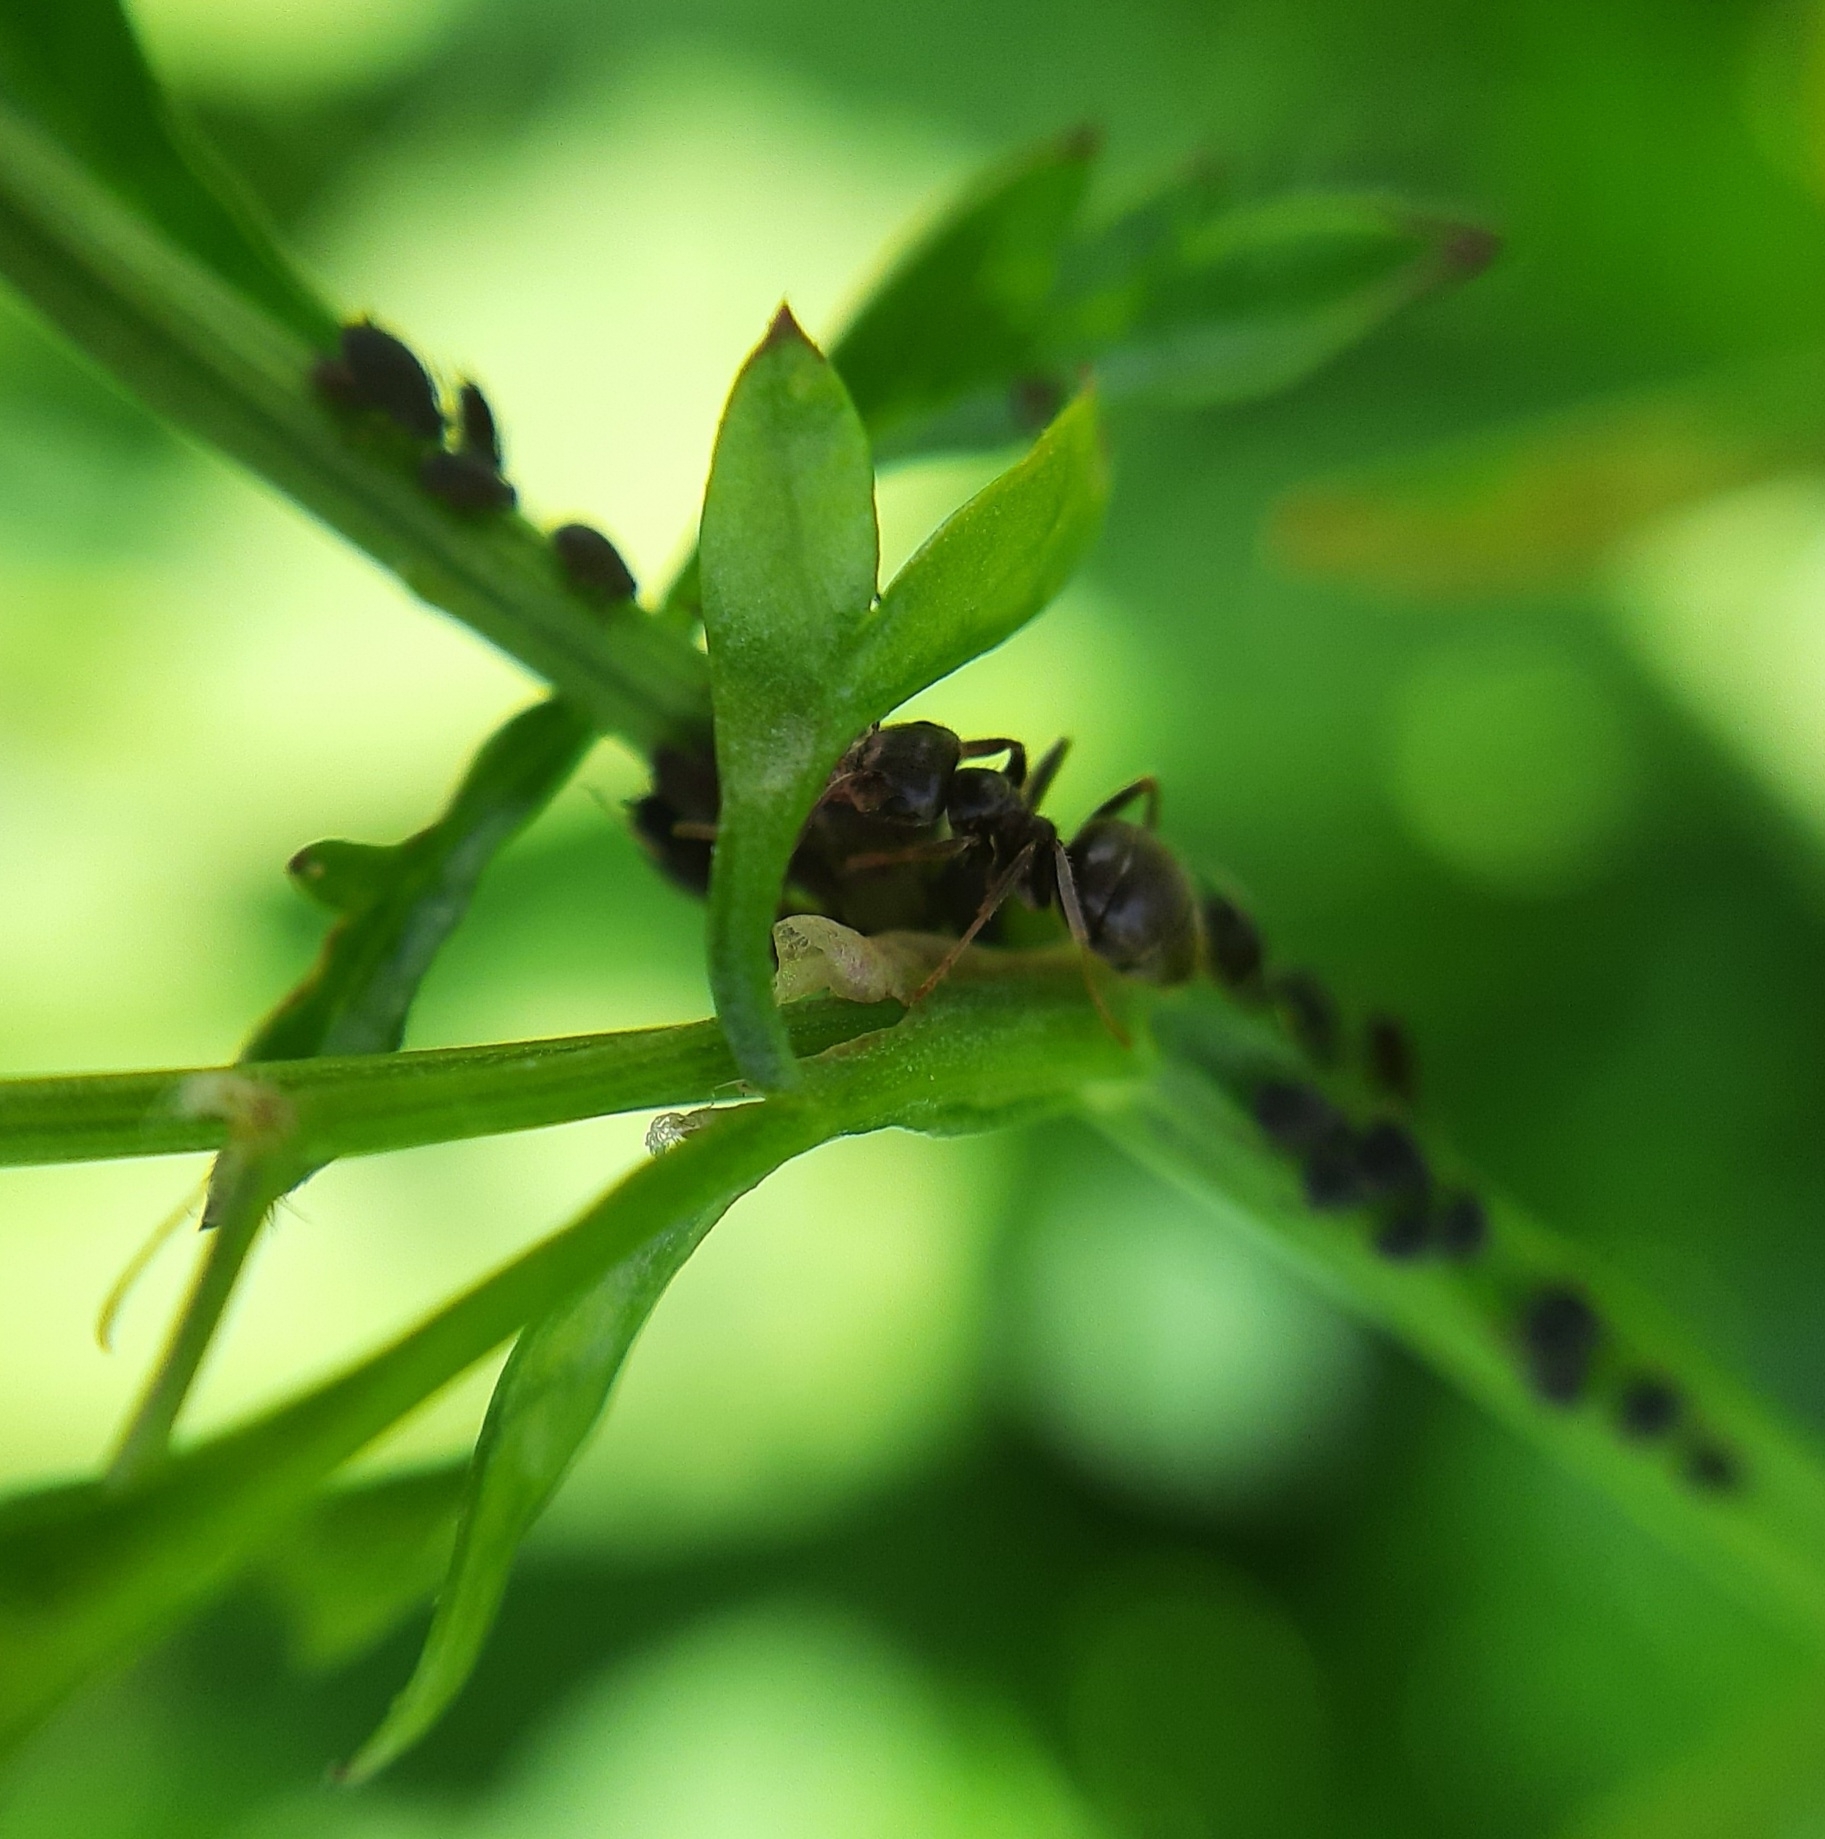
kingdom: Animalia
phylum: Arthropoda
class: Insecta
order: Hymenoptera
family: Formicidae
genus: Lasius
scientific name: Lasius
